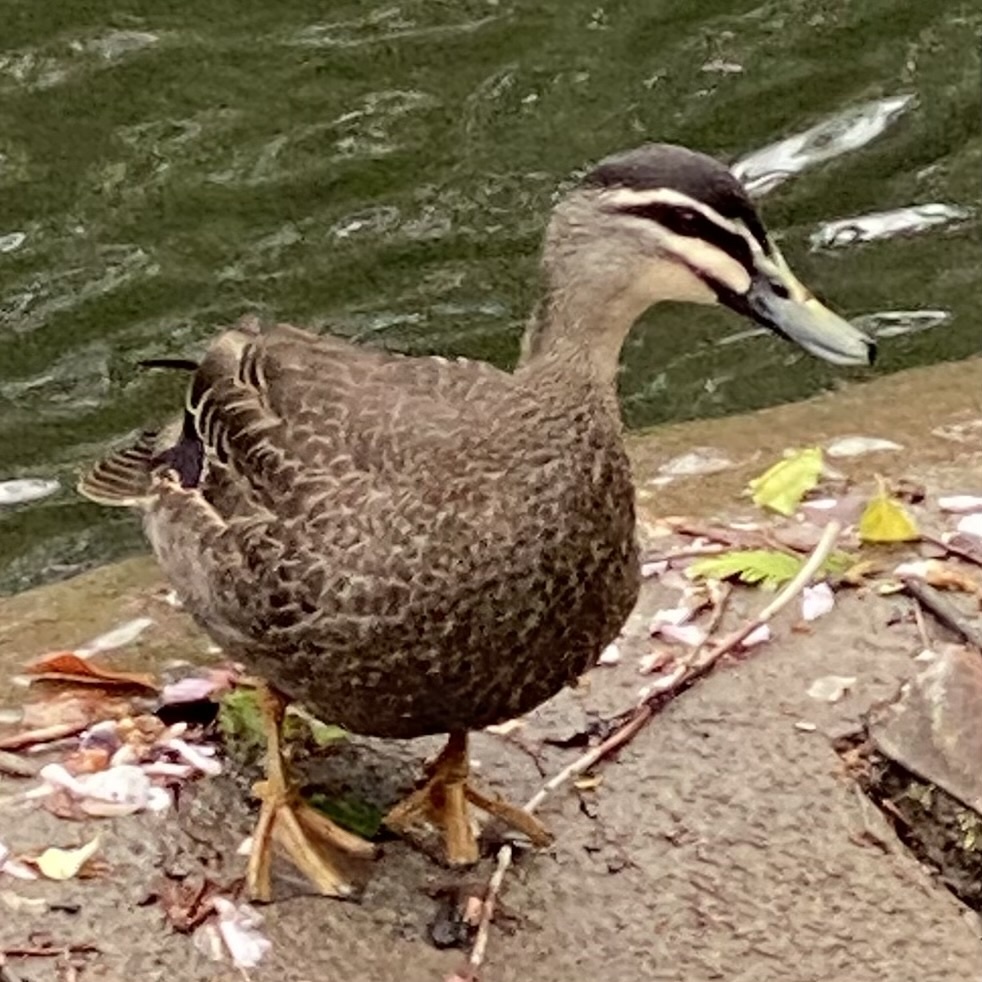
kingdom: Animalia
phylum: Chordata
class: Aves
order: Anseriformes
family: Anatidae
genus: Anas
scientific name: Anas superciliosa
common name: Pacific black duck
